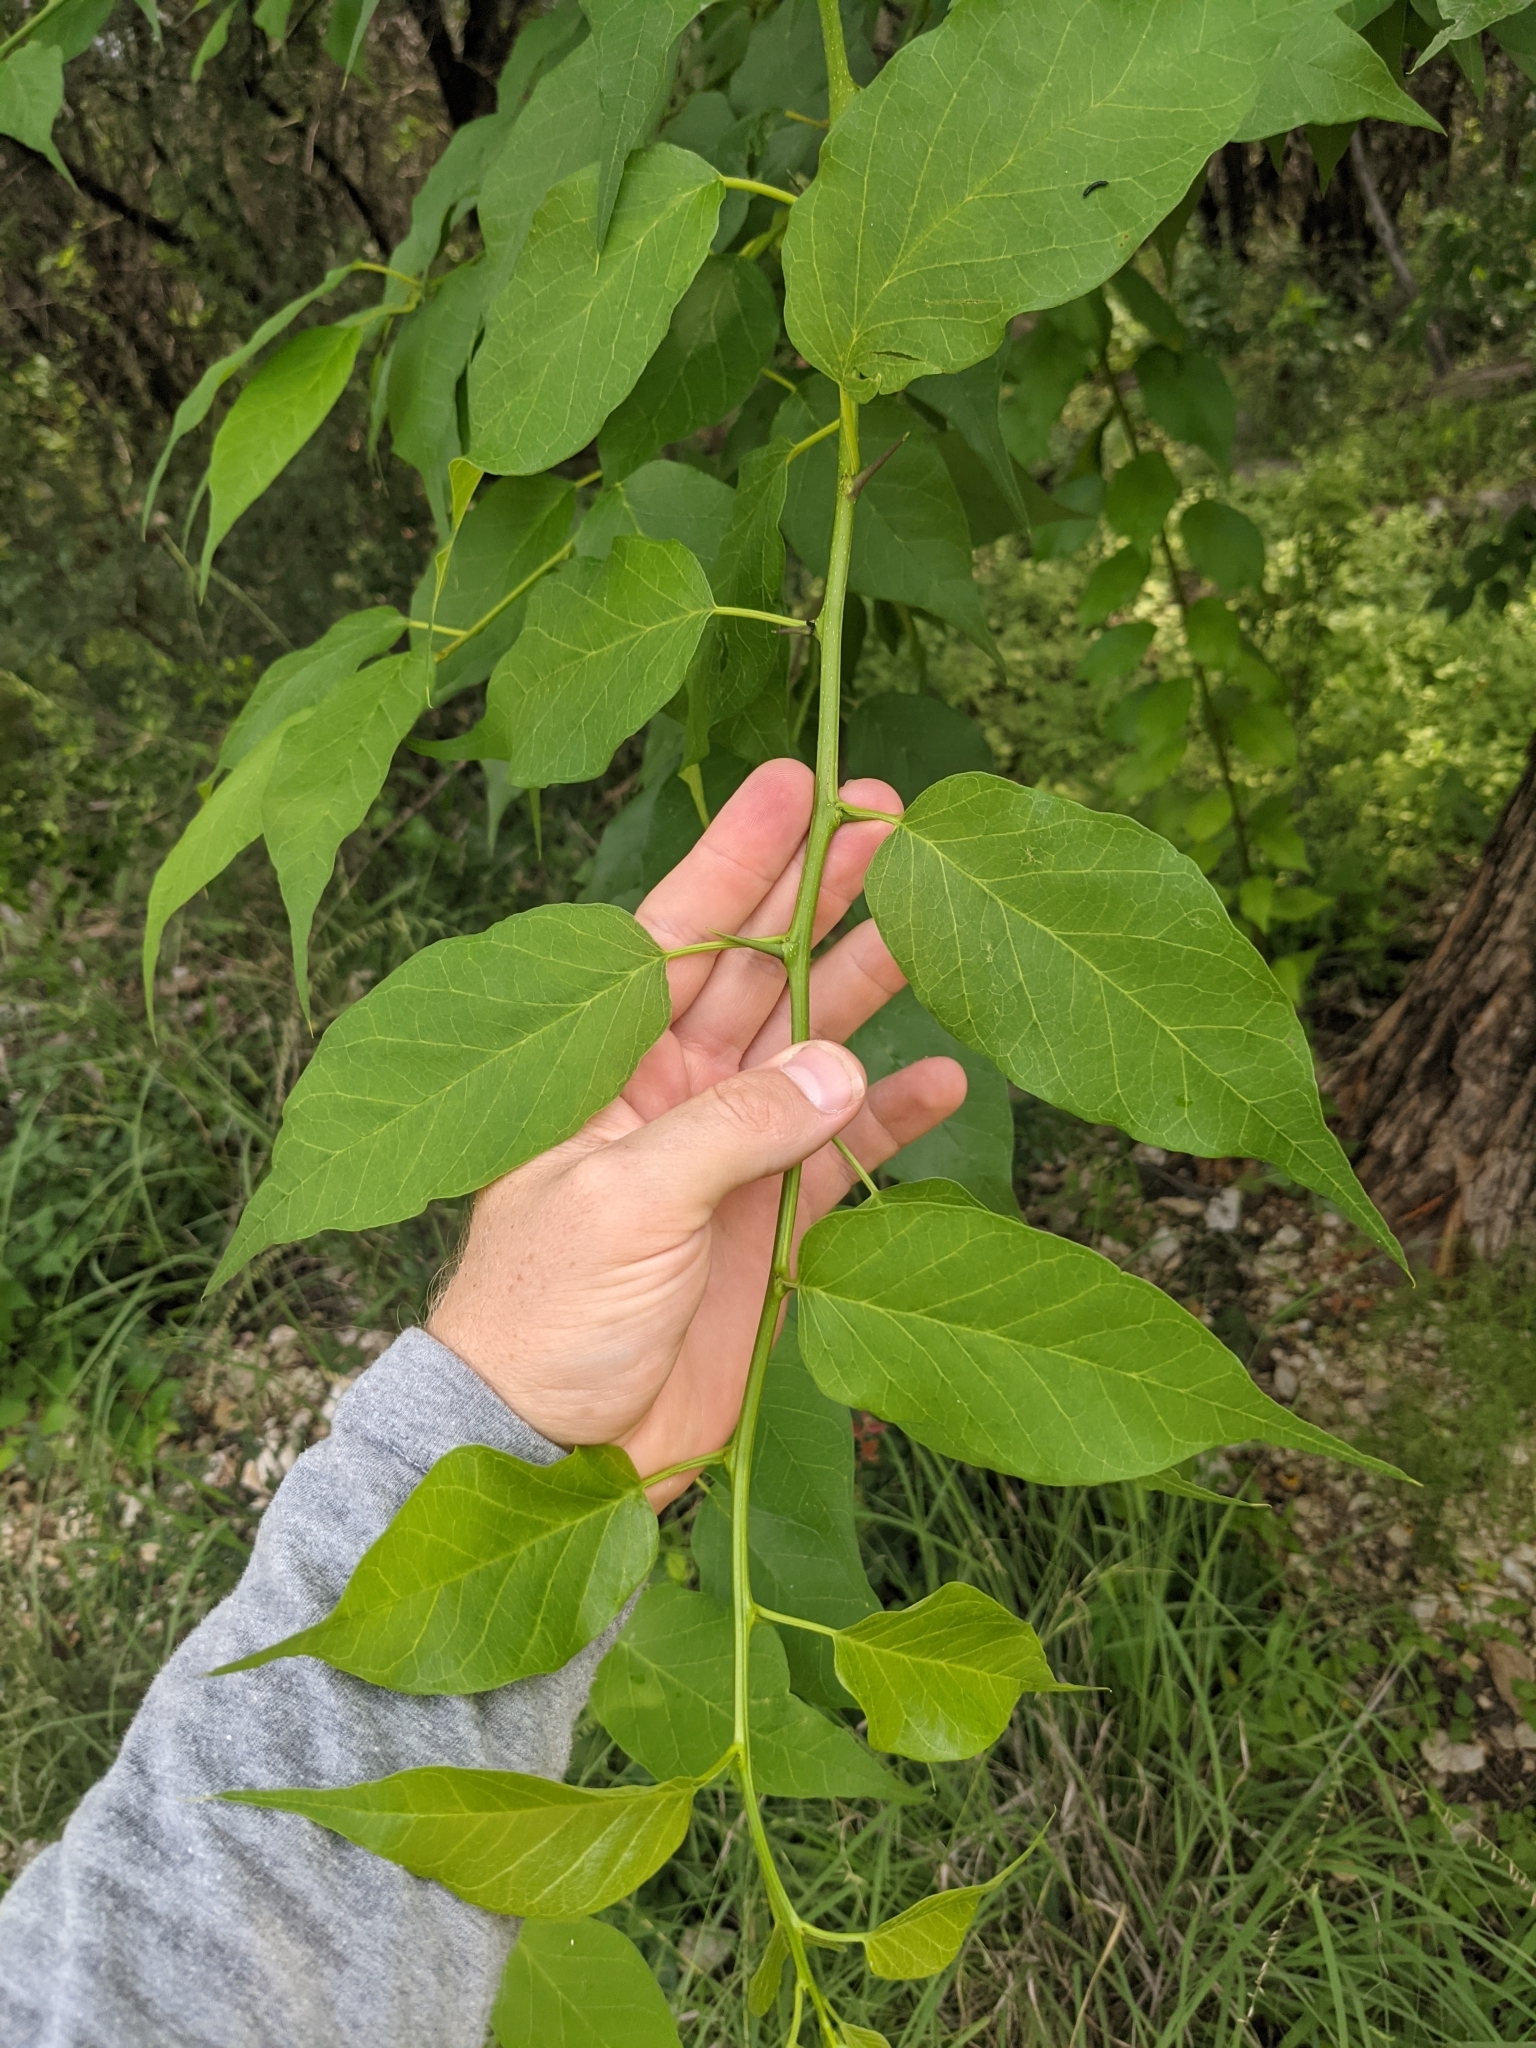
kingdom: Plantae
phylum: Tracheophyta
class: Magnoliopsida
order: Rosales
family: Moraceae
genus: Maclura
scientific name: Maclura pomifera
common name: Osage-orange
